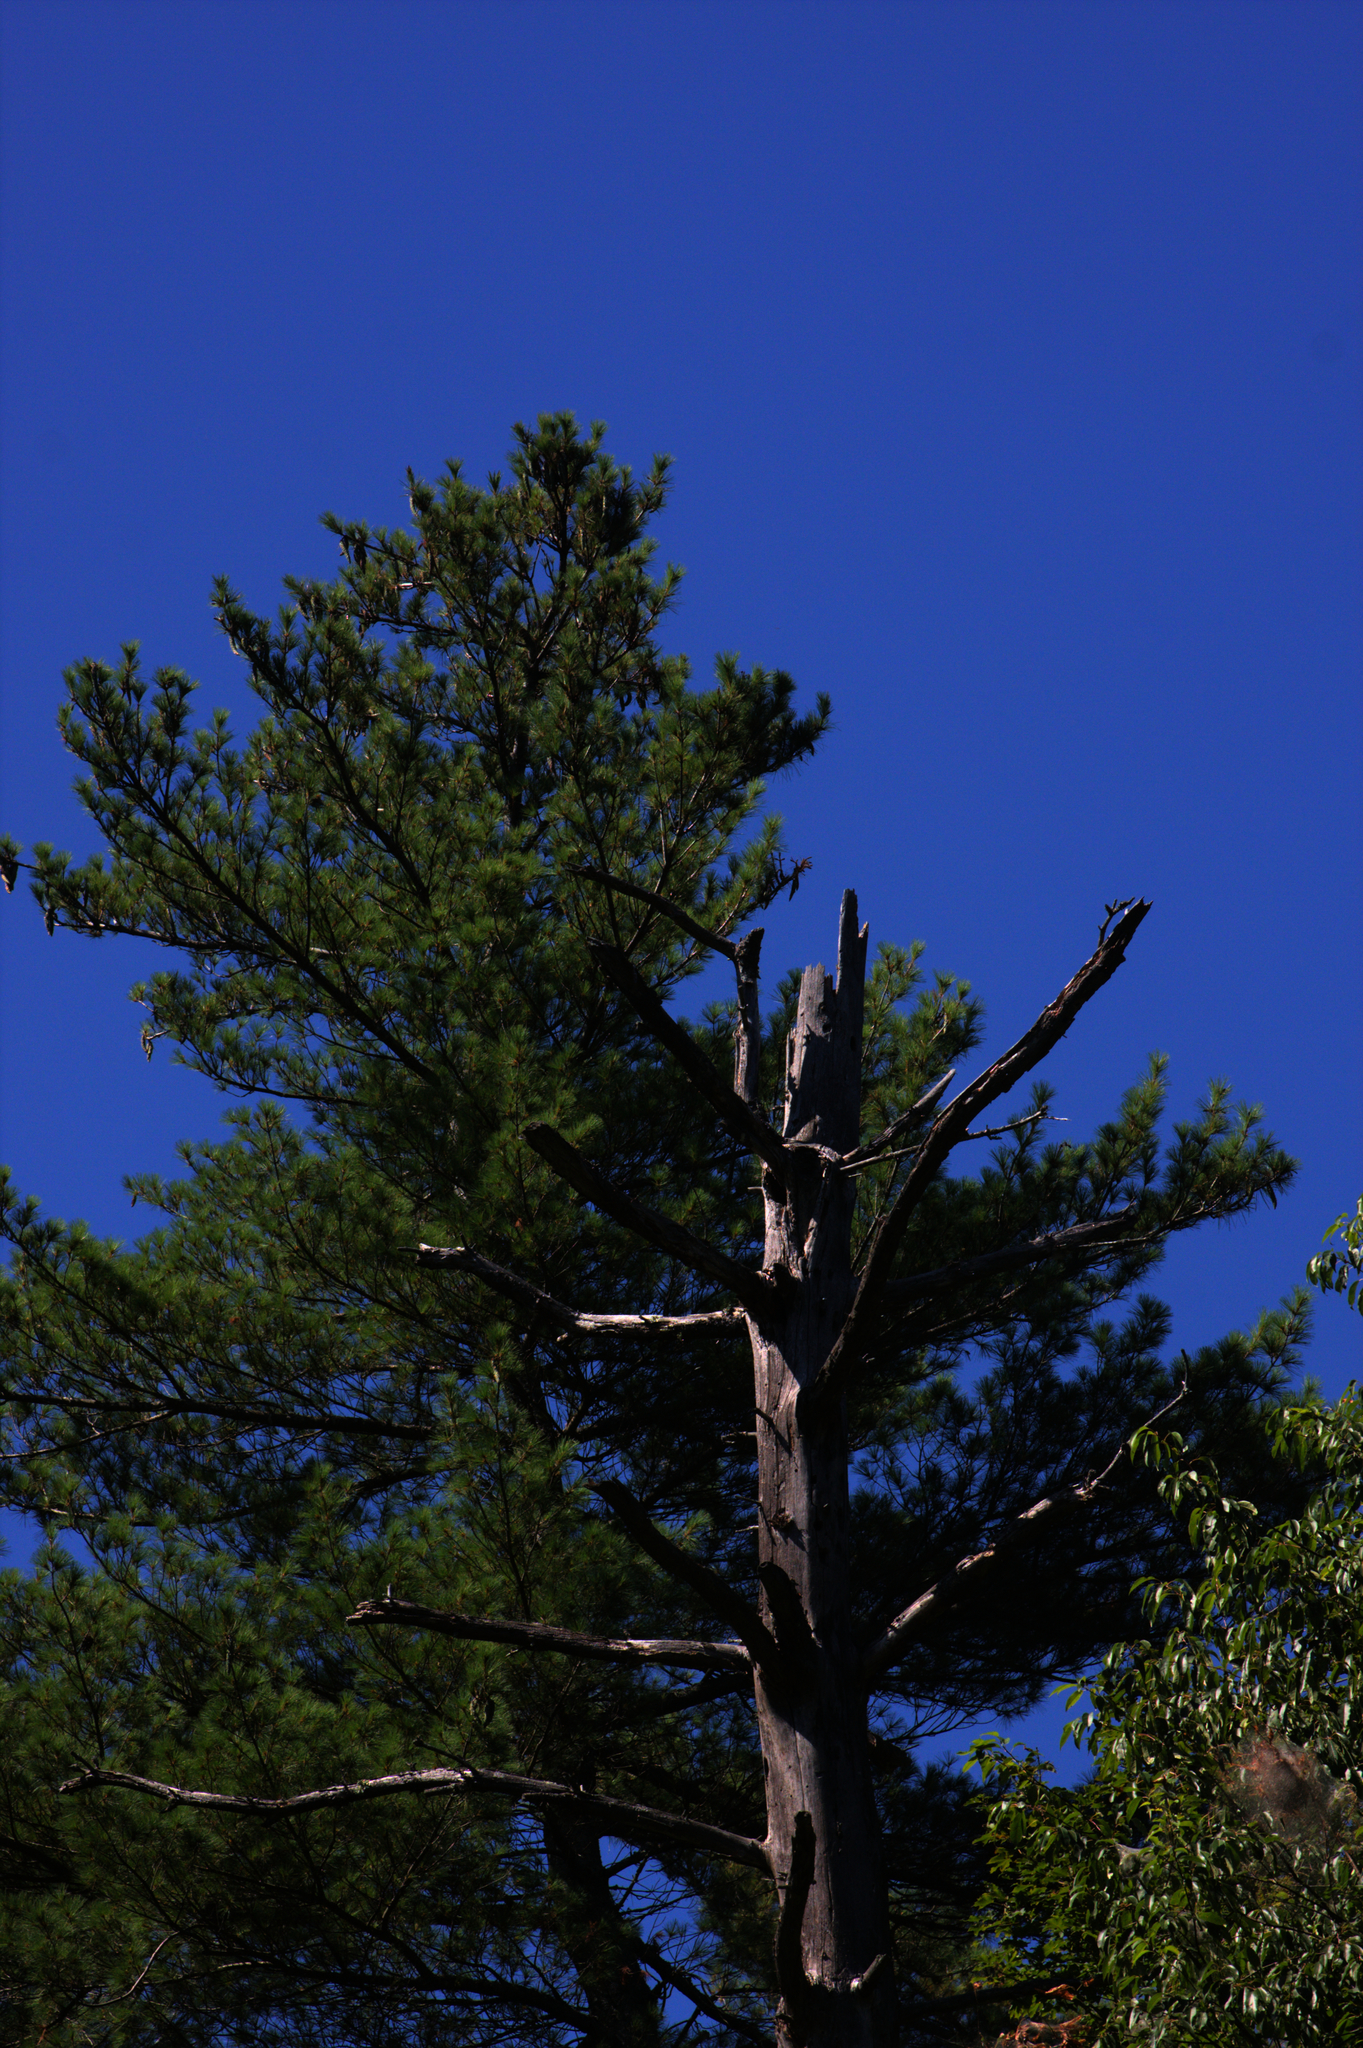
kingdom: Plantae
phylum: Tracheophyta
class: Pinopsida
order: Pinales
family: Pinaceae
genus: Pinus
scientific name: Pinus strobus
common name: Weymouth pine
